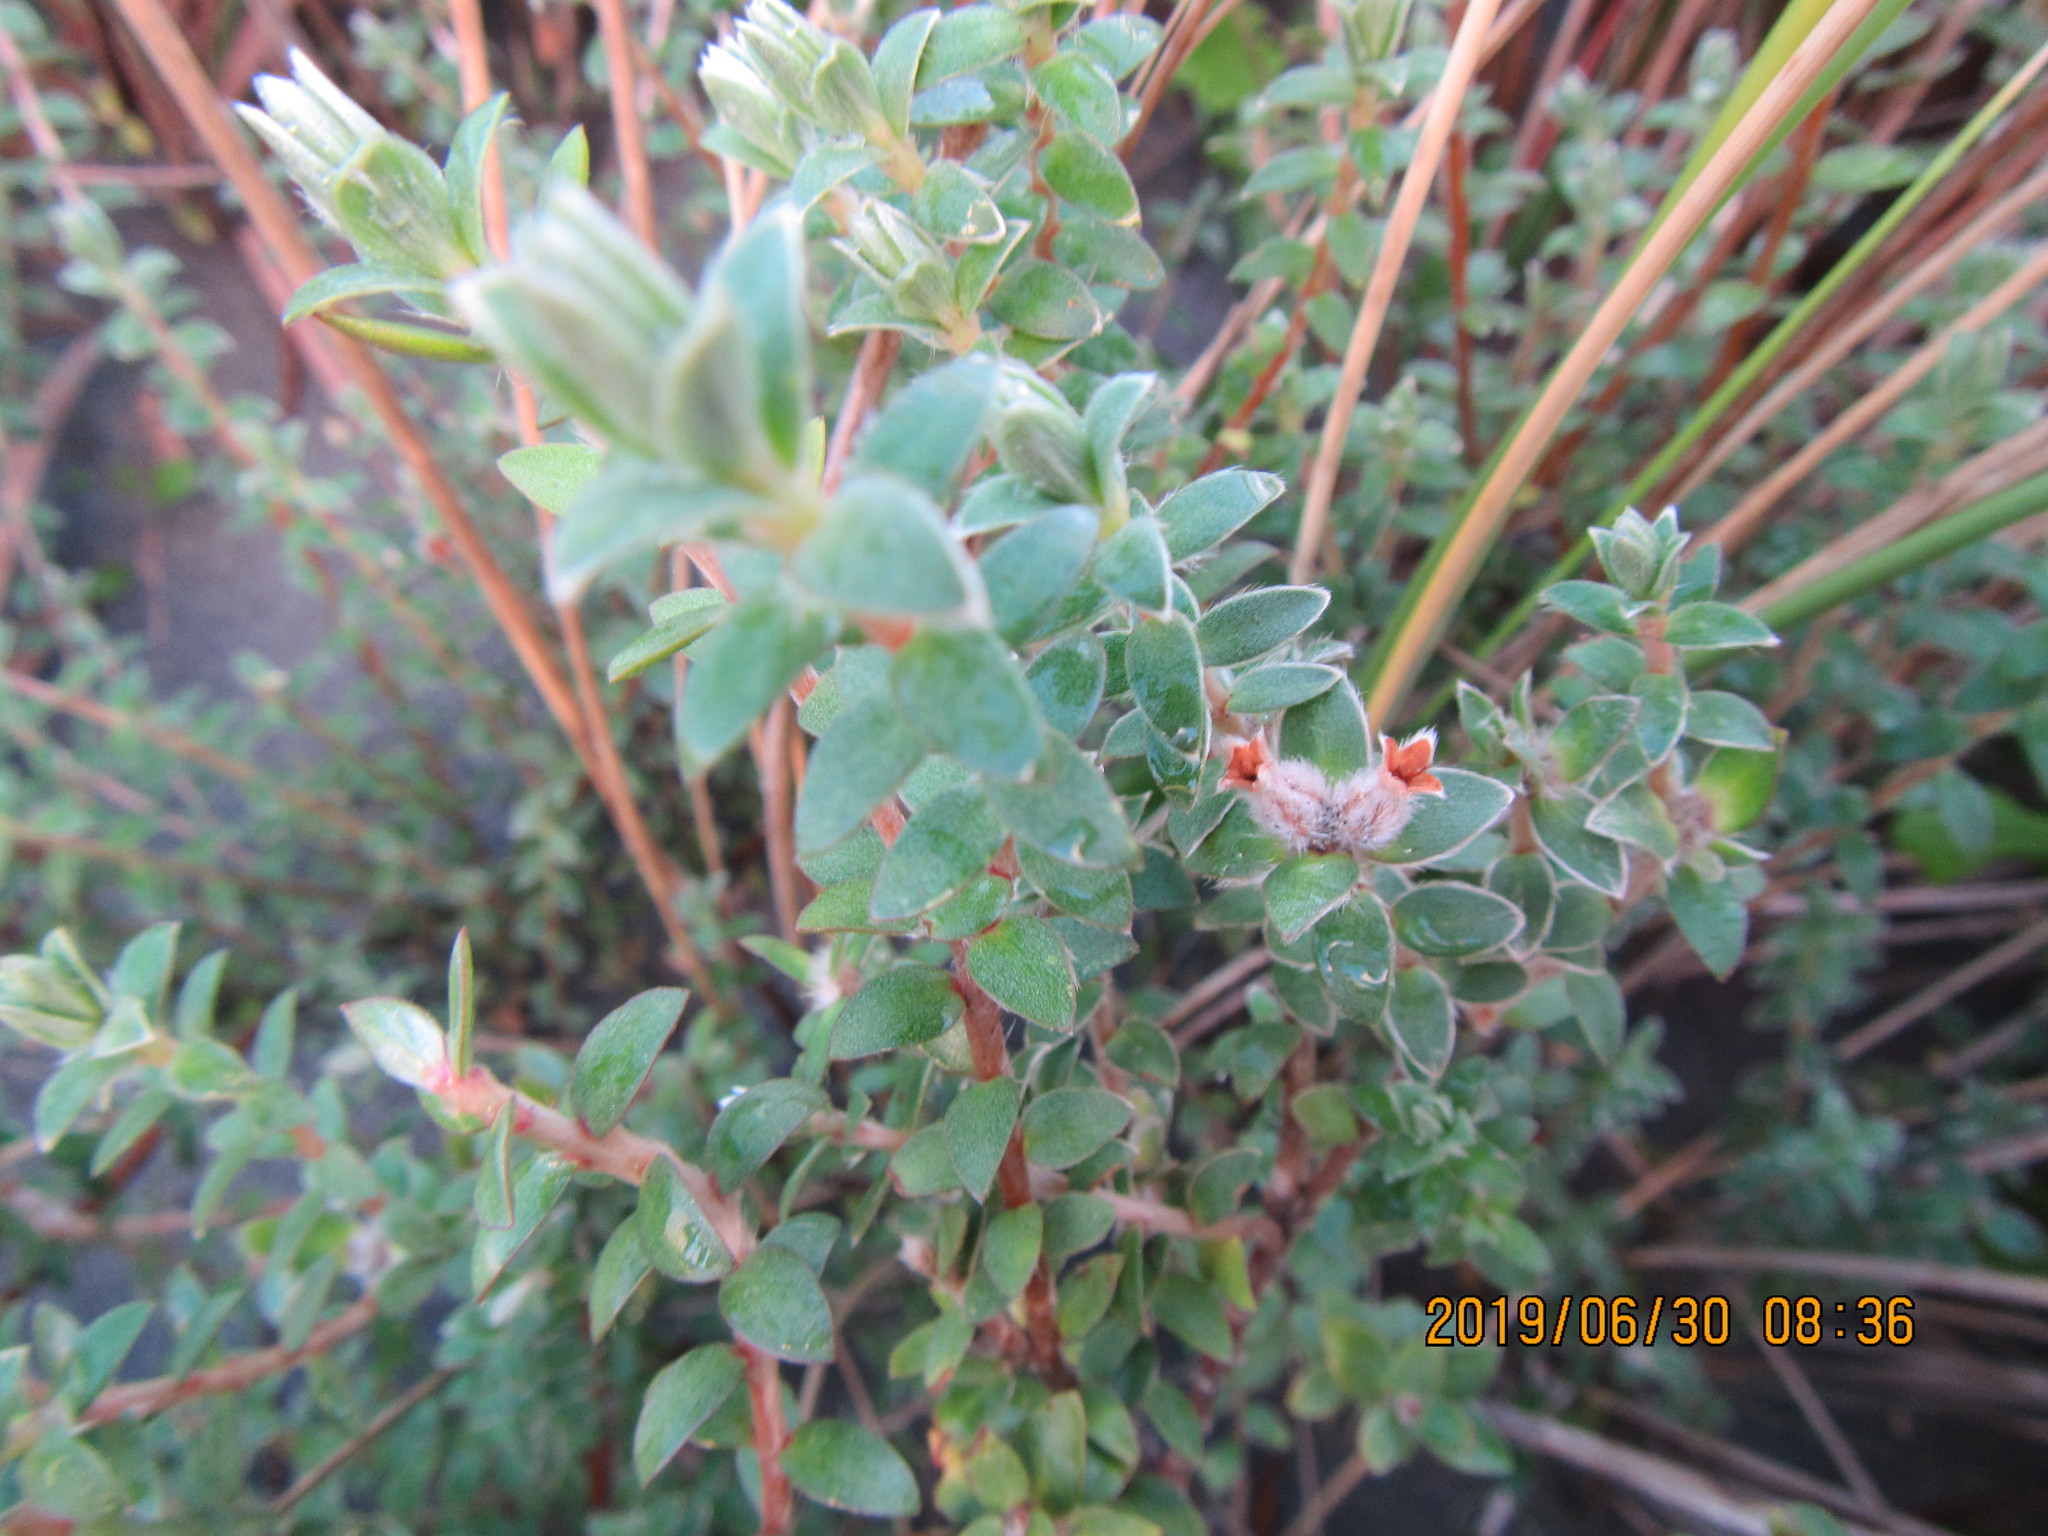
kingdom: Plantae
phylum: Tracheophyta
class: Magnoliopsida
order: Malvales
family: Thymelaeaceae
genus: Pimelea
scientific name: Pimelea villosa
